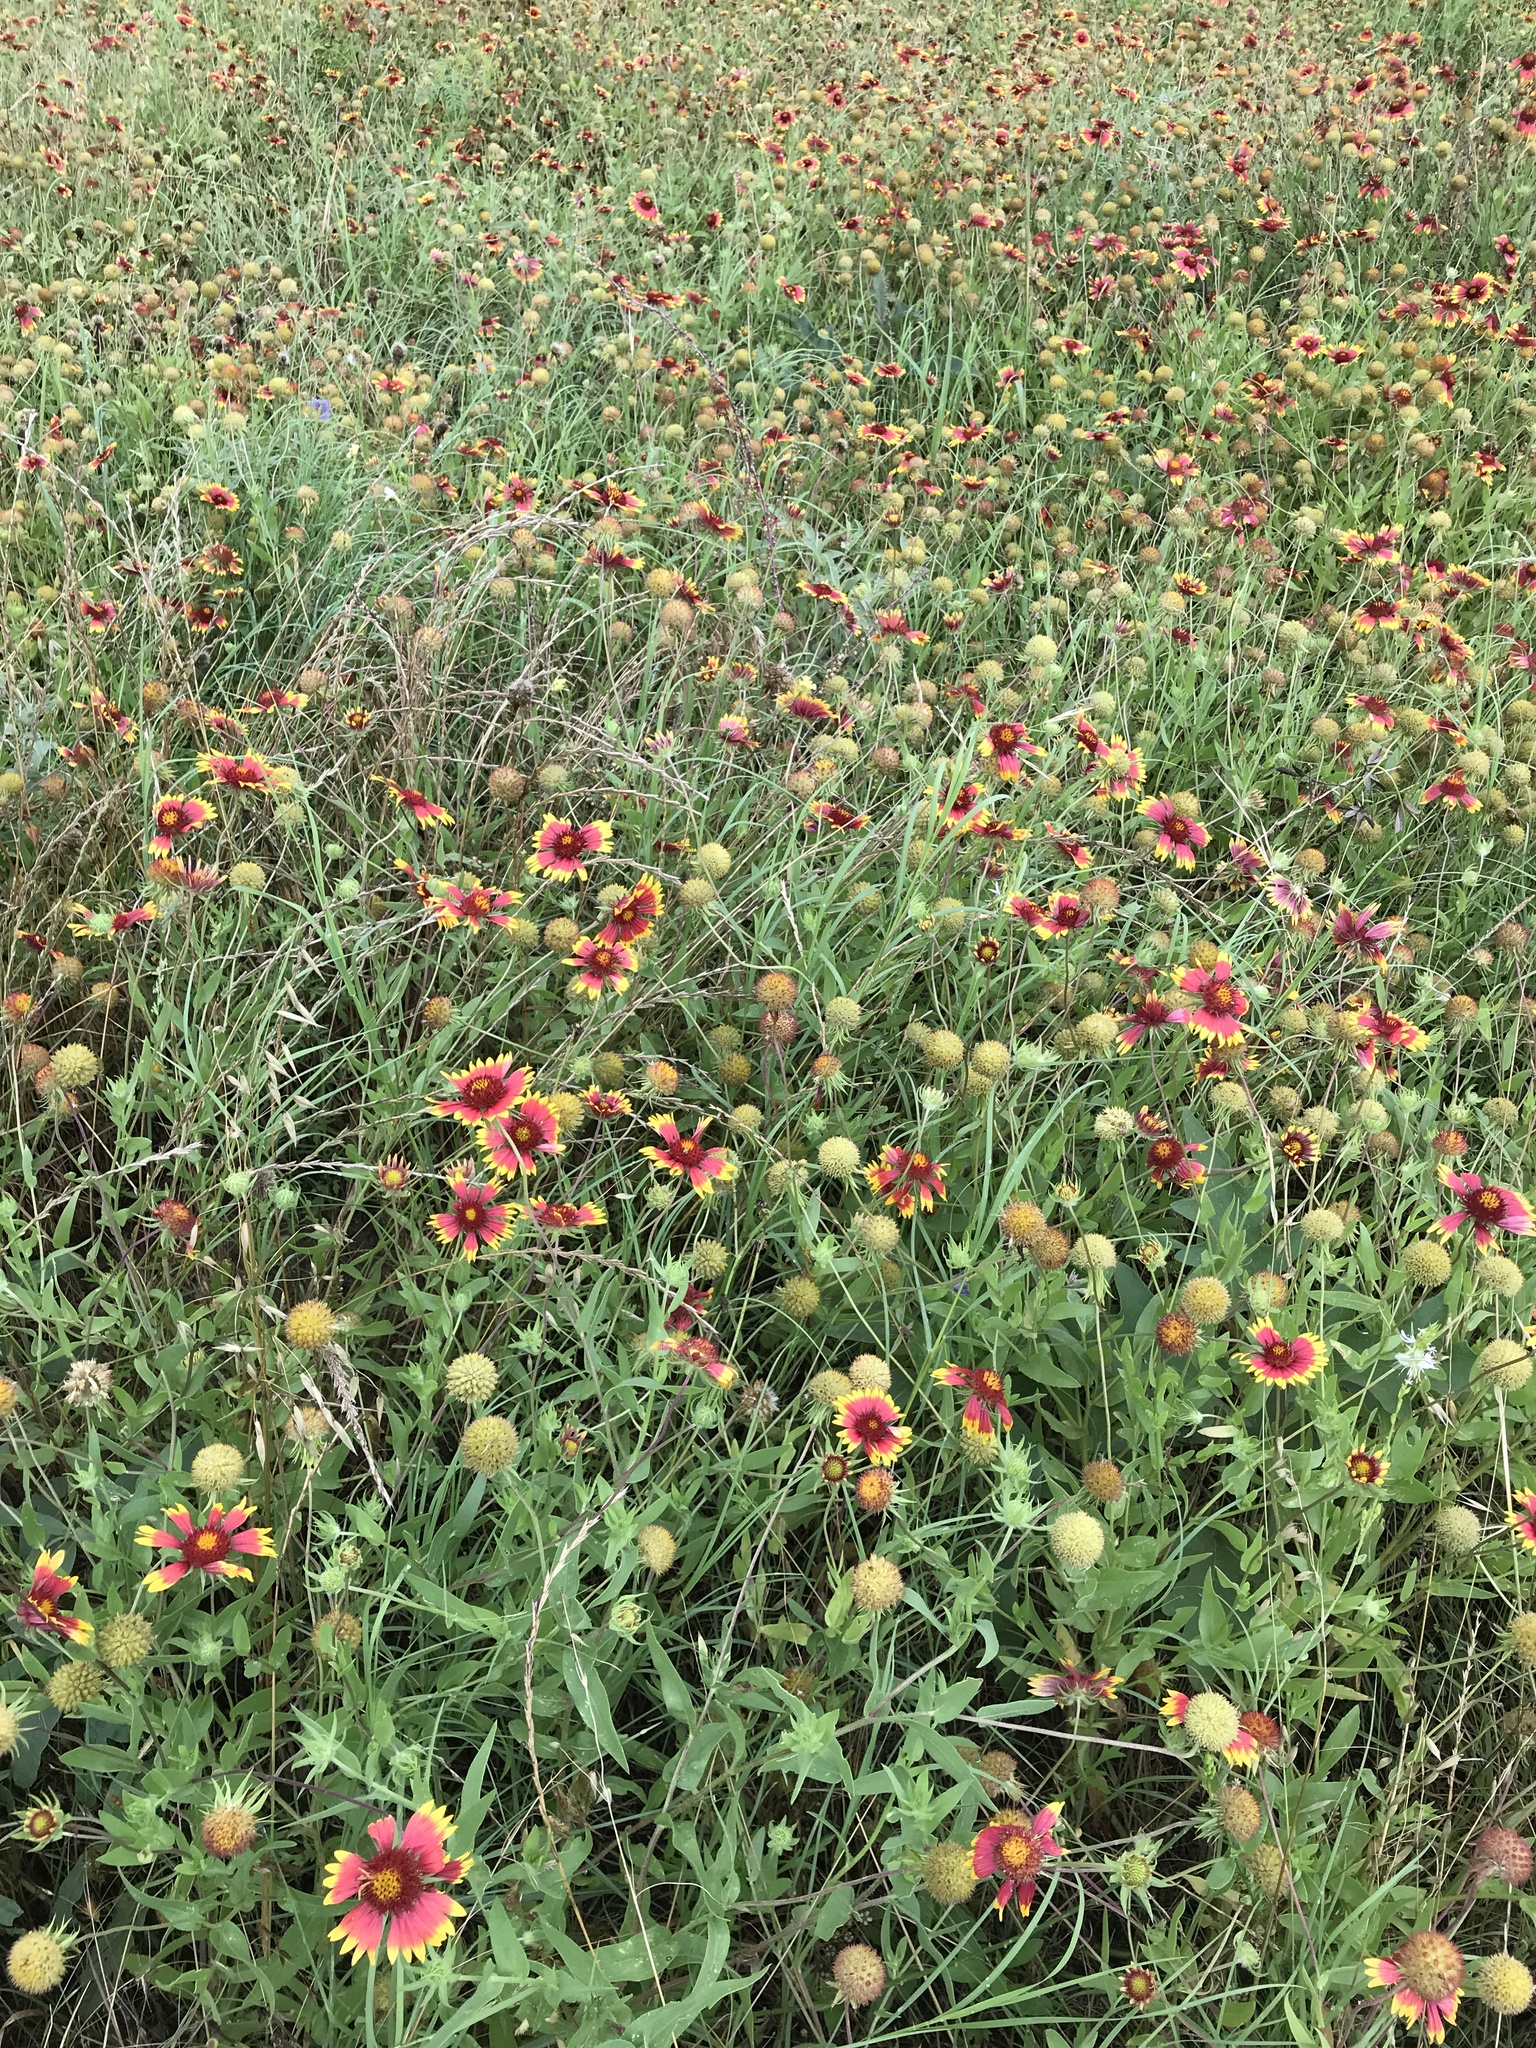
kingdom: Plantae
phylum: Tracheophyta
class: Magnoliopsida
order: Asterales
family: Asteraceae
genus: Gaillardia
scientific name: Gaillardia pulchella
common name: Firewheel
